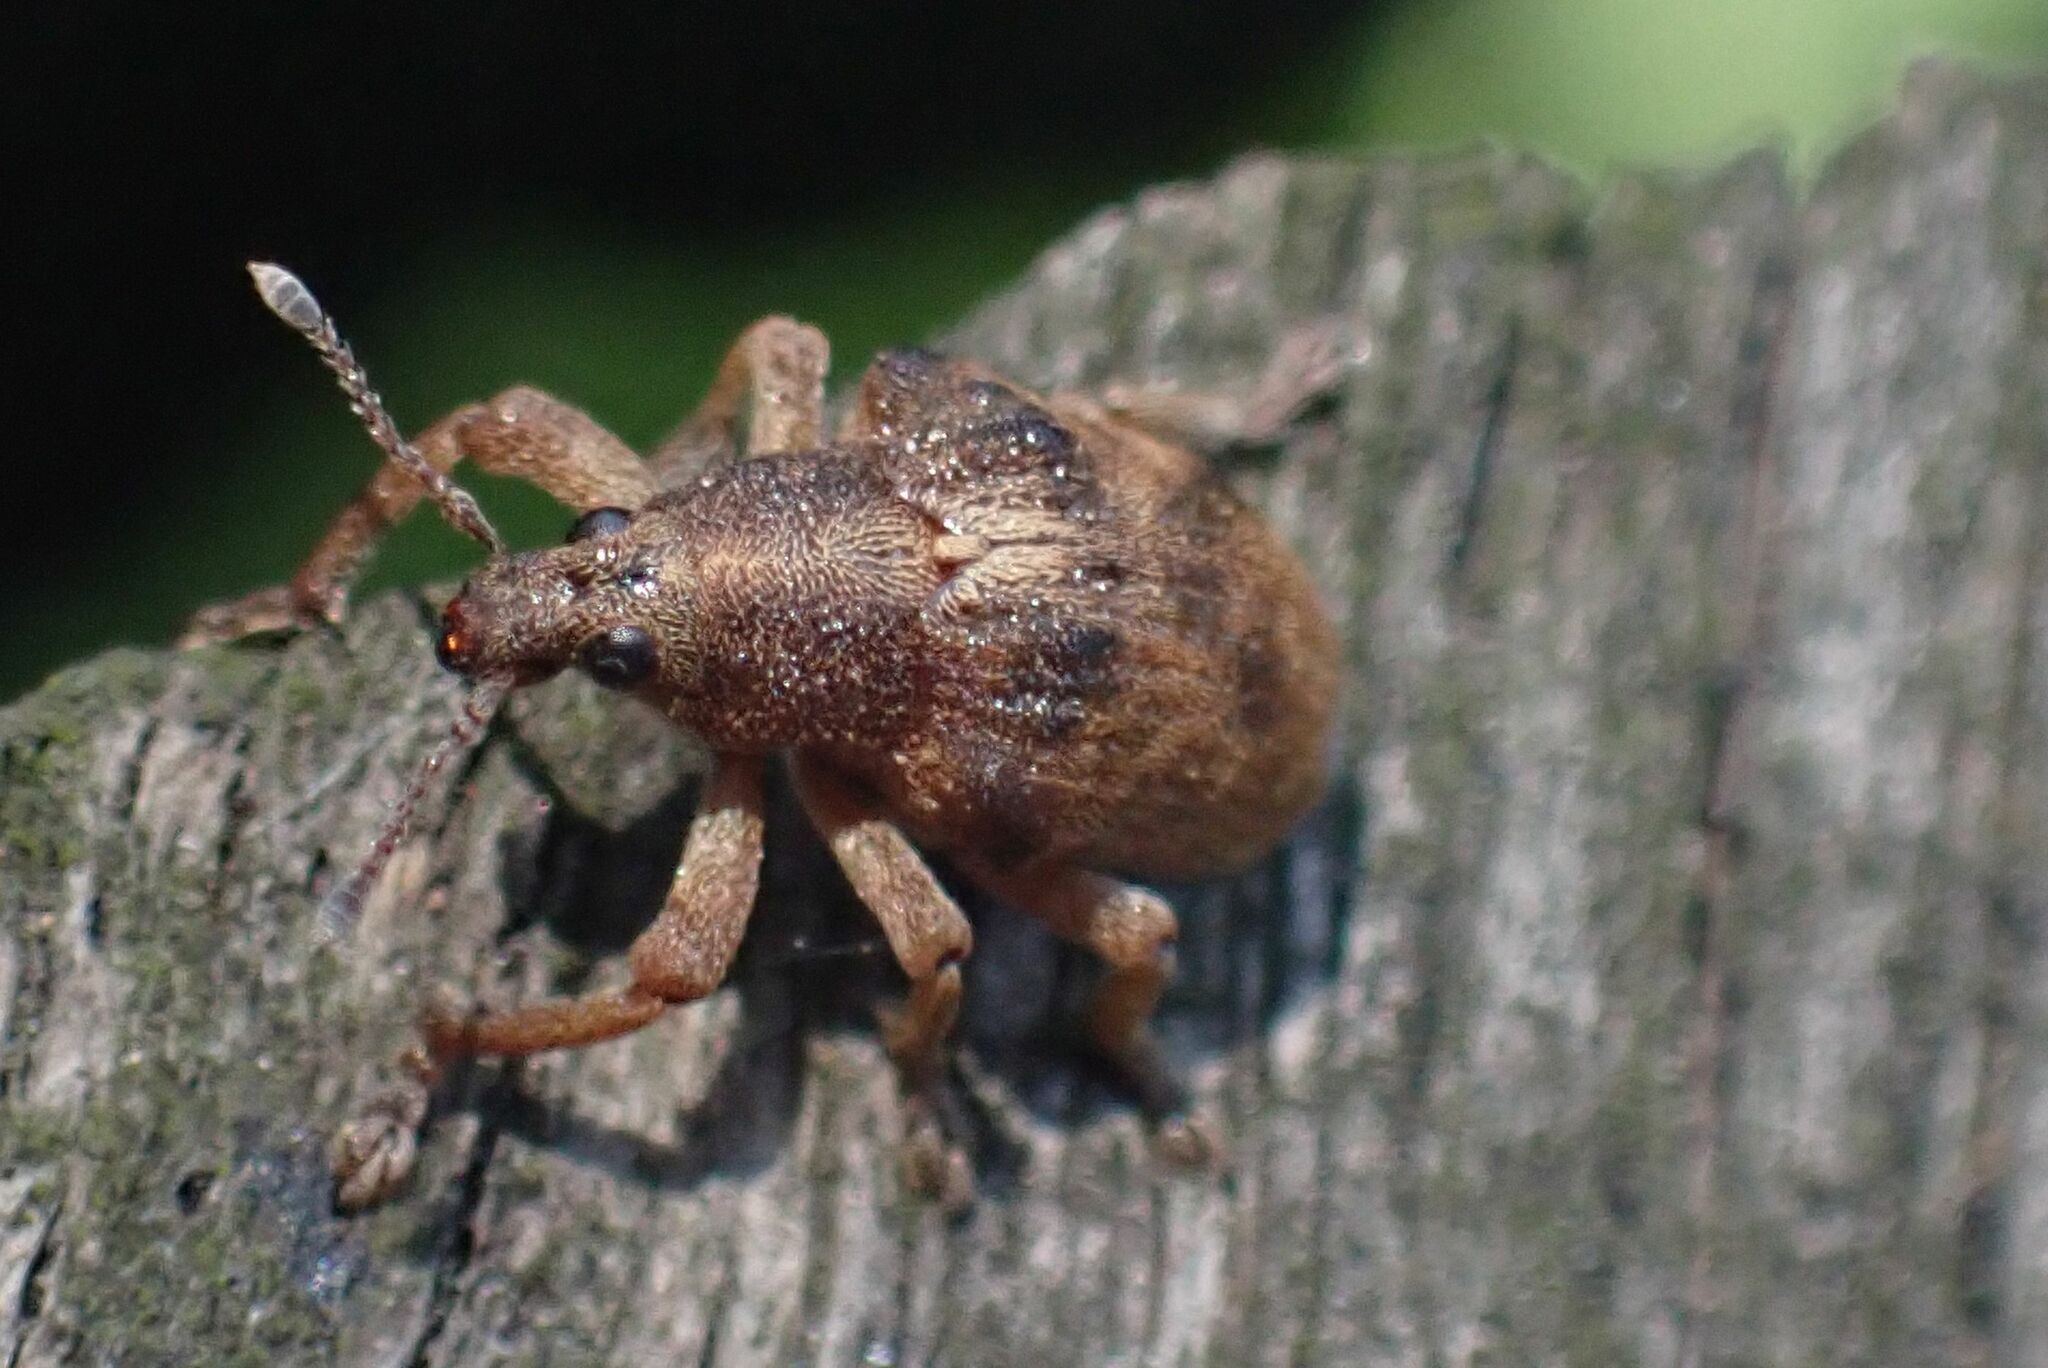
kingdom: Animalia
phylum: Arthropoda
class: Insecta
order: Coleoptera
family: Curculionidae
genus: Gonipterus
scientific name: Gonipterus
